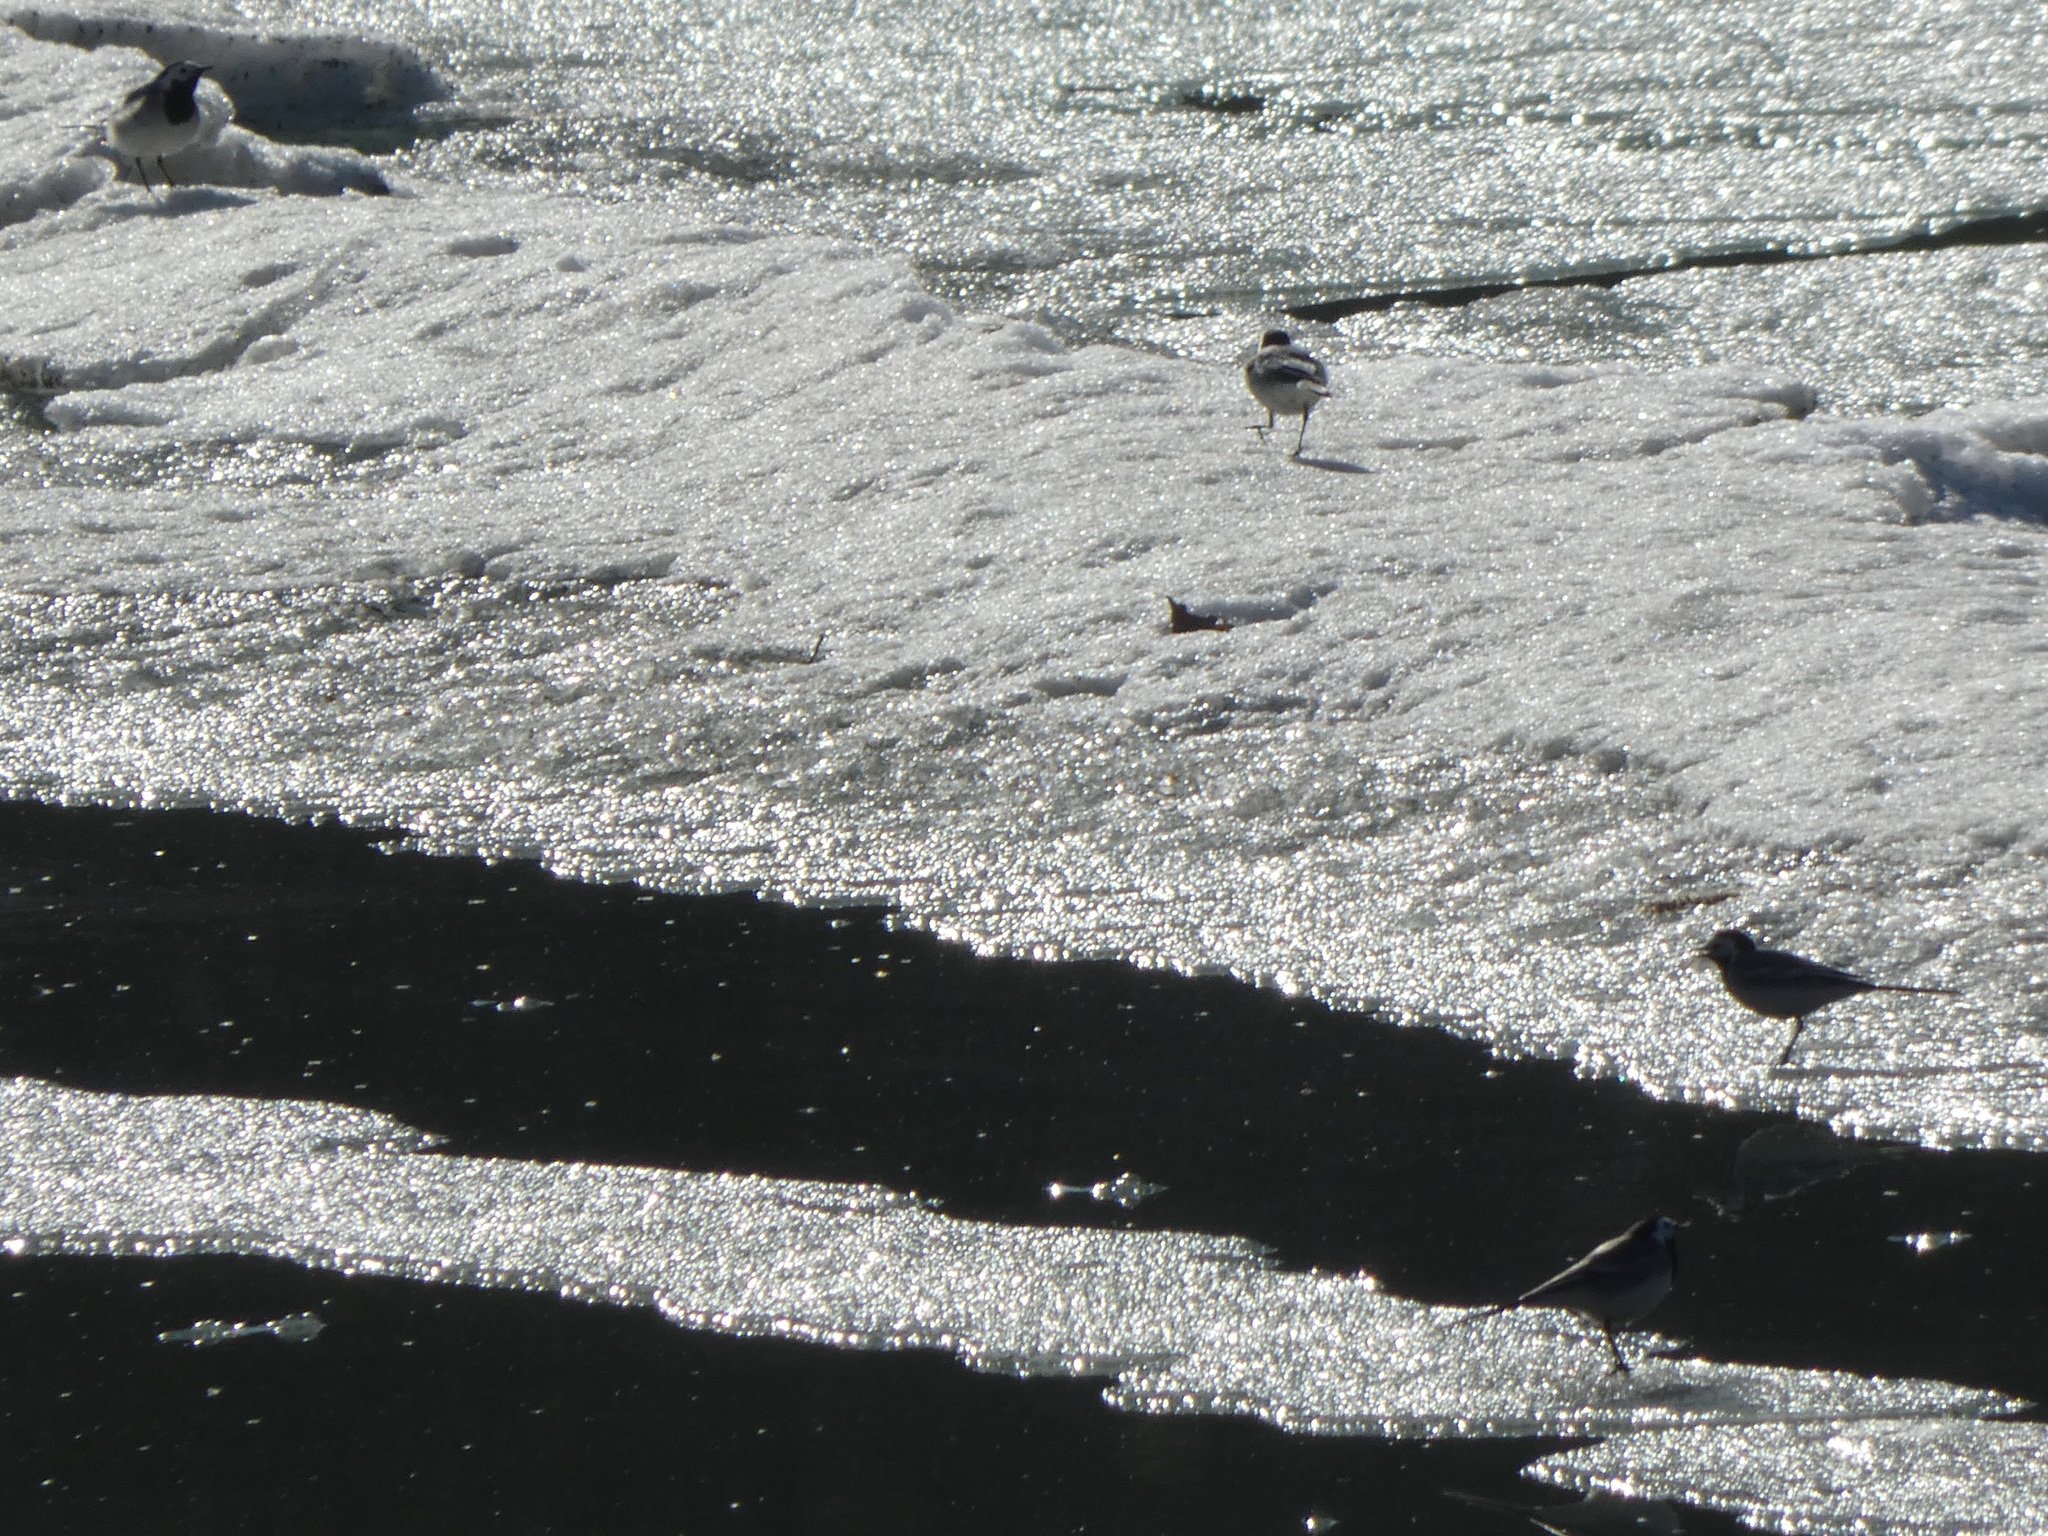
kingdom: Animalia
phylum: Chordata
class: Aves
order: Passeriformes
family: Motacillidae
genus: Motacilla
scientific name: Motacilla alba
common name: White wagtail
